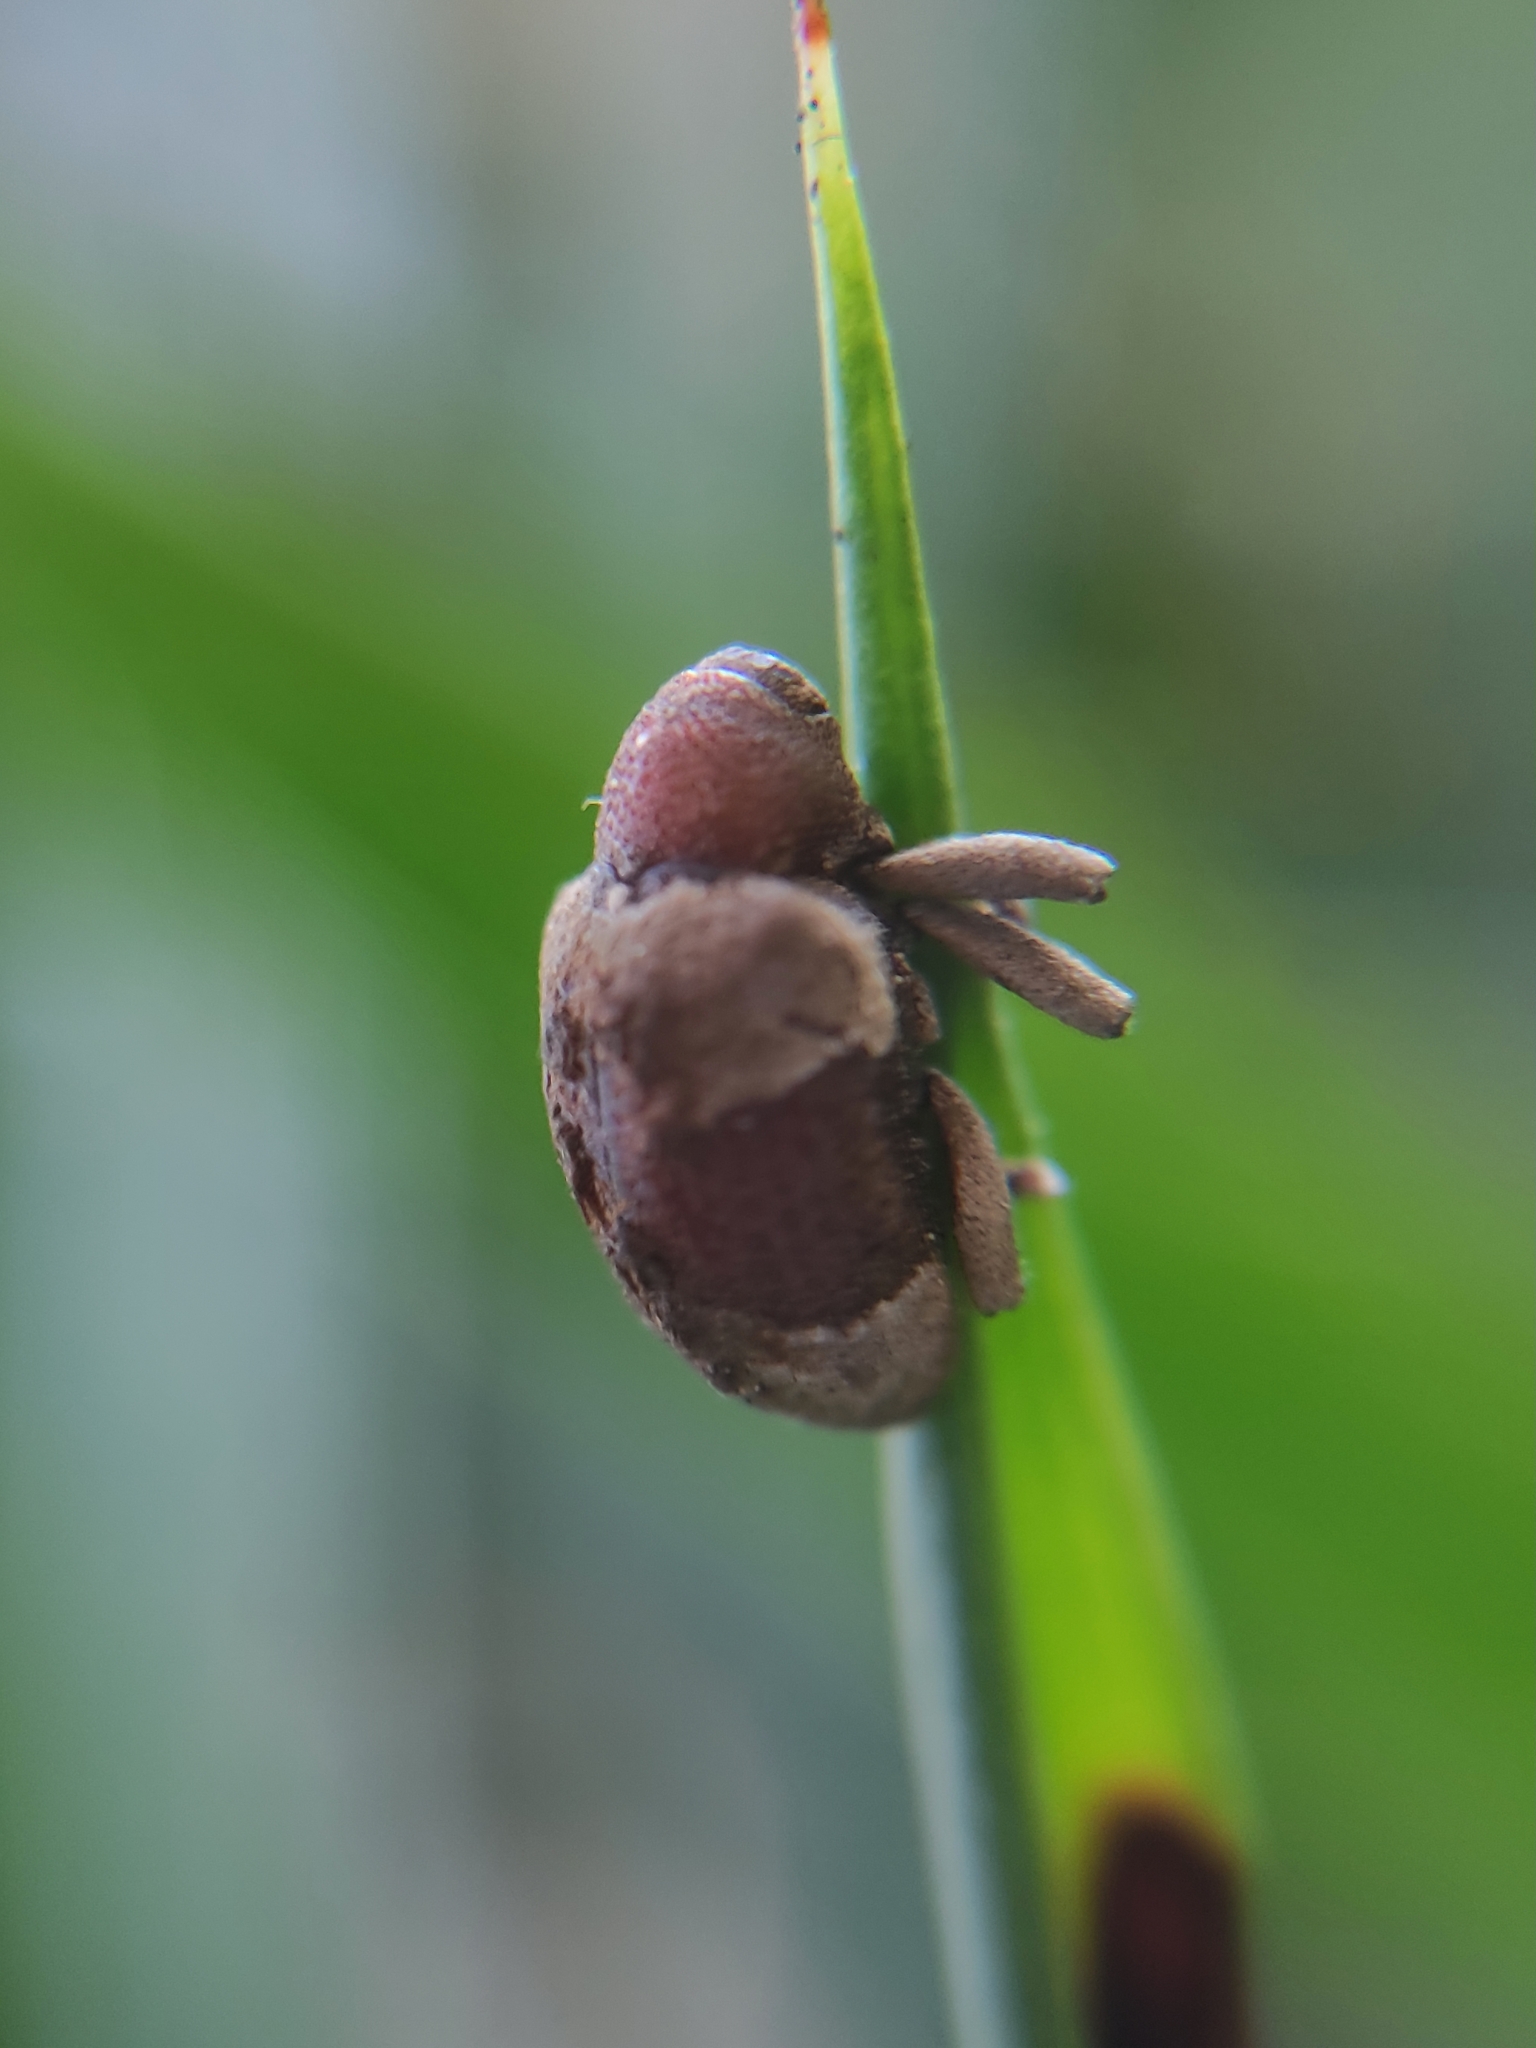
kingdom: Animalia
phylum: Arthropoda
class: Insecta
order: Coleoptera
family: Curculionidae
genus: Rhinochenus
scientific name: Rhinochenus stigma
